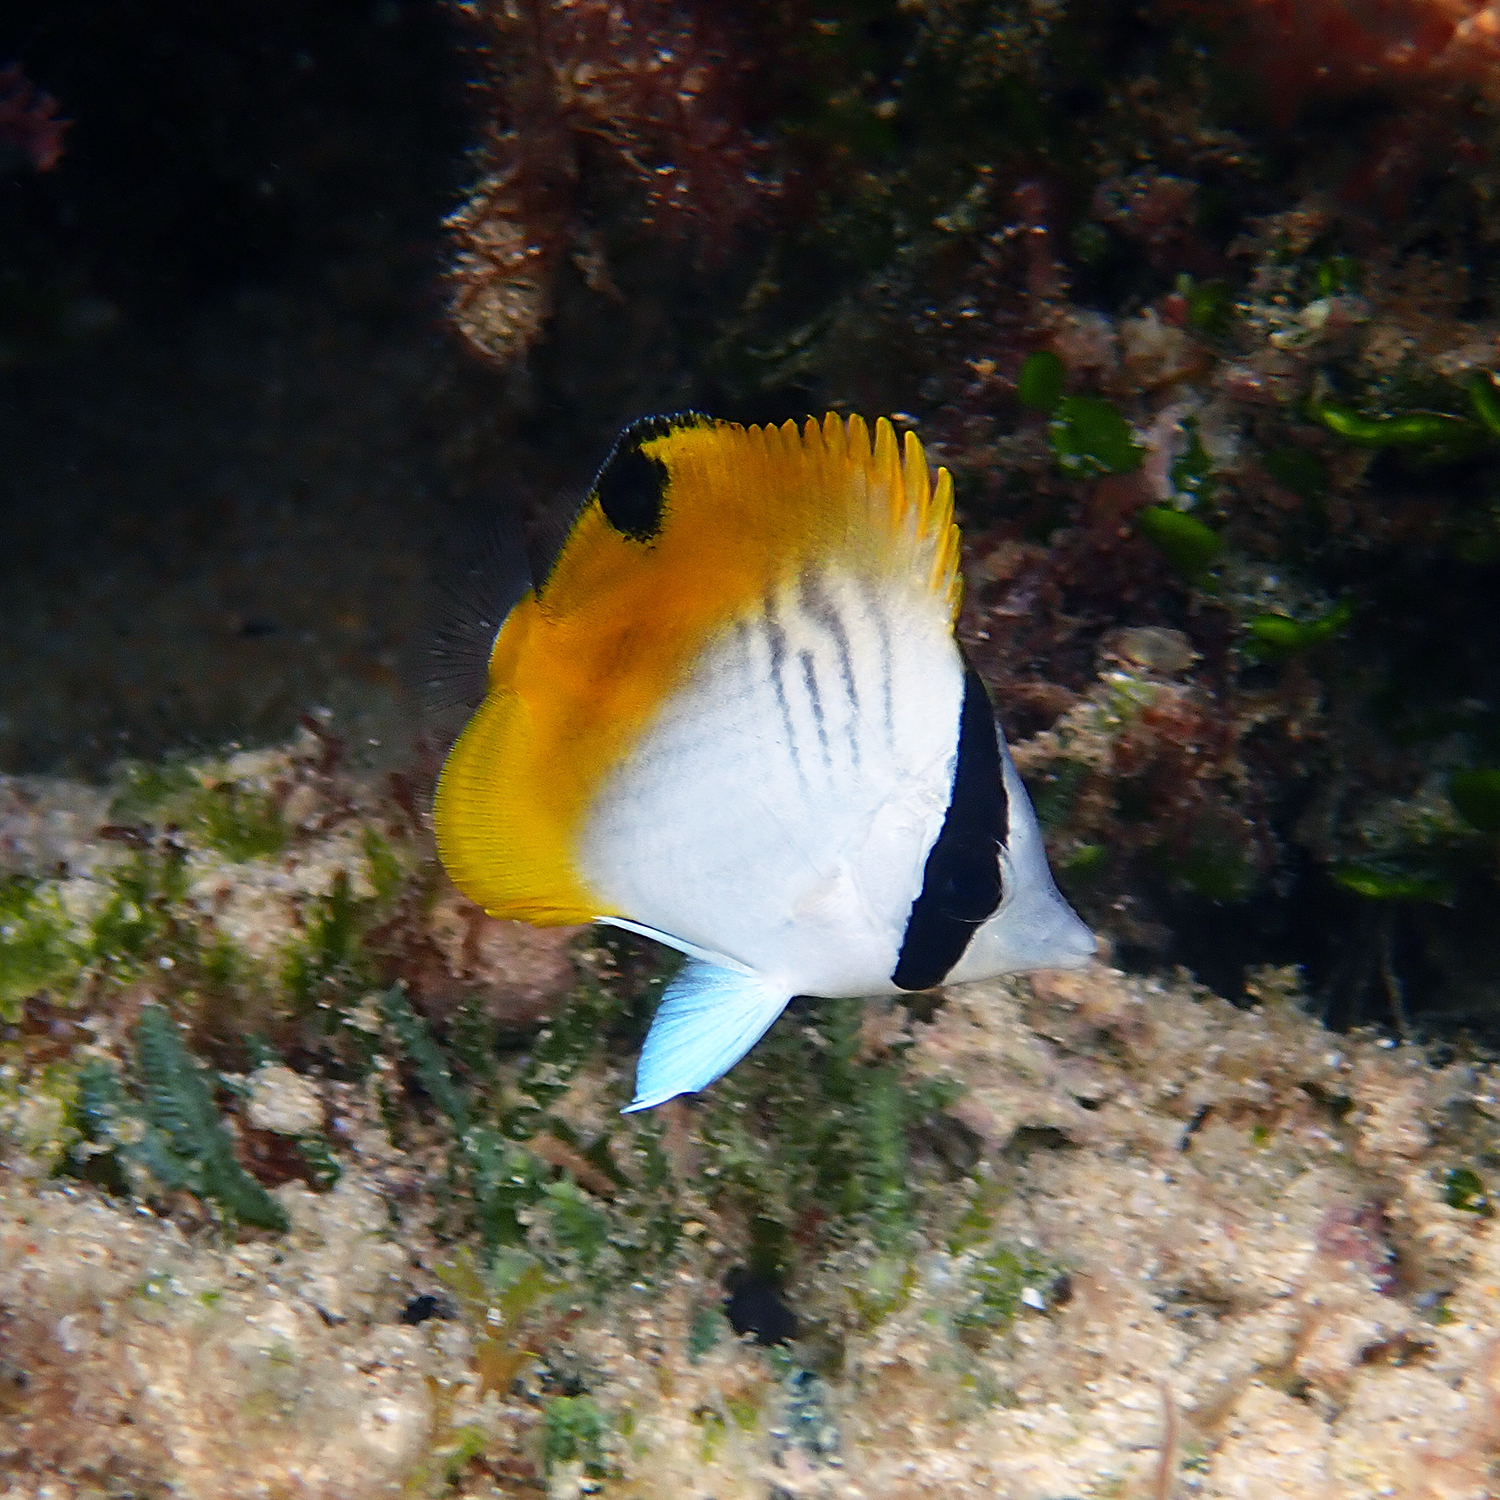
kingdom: Animalia
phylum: Chordata
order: Perciformes
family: Chaetodontidae
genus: Chaetodon
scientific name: Chaetodon auriga
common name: Threadfin butterflyfish
